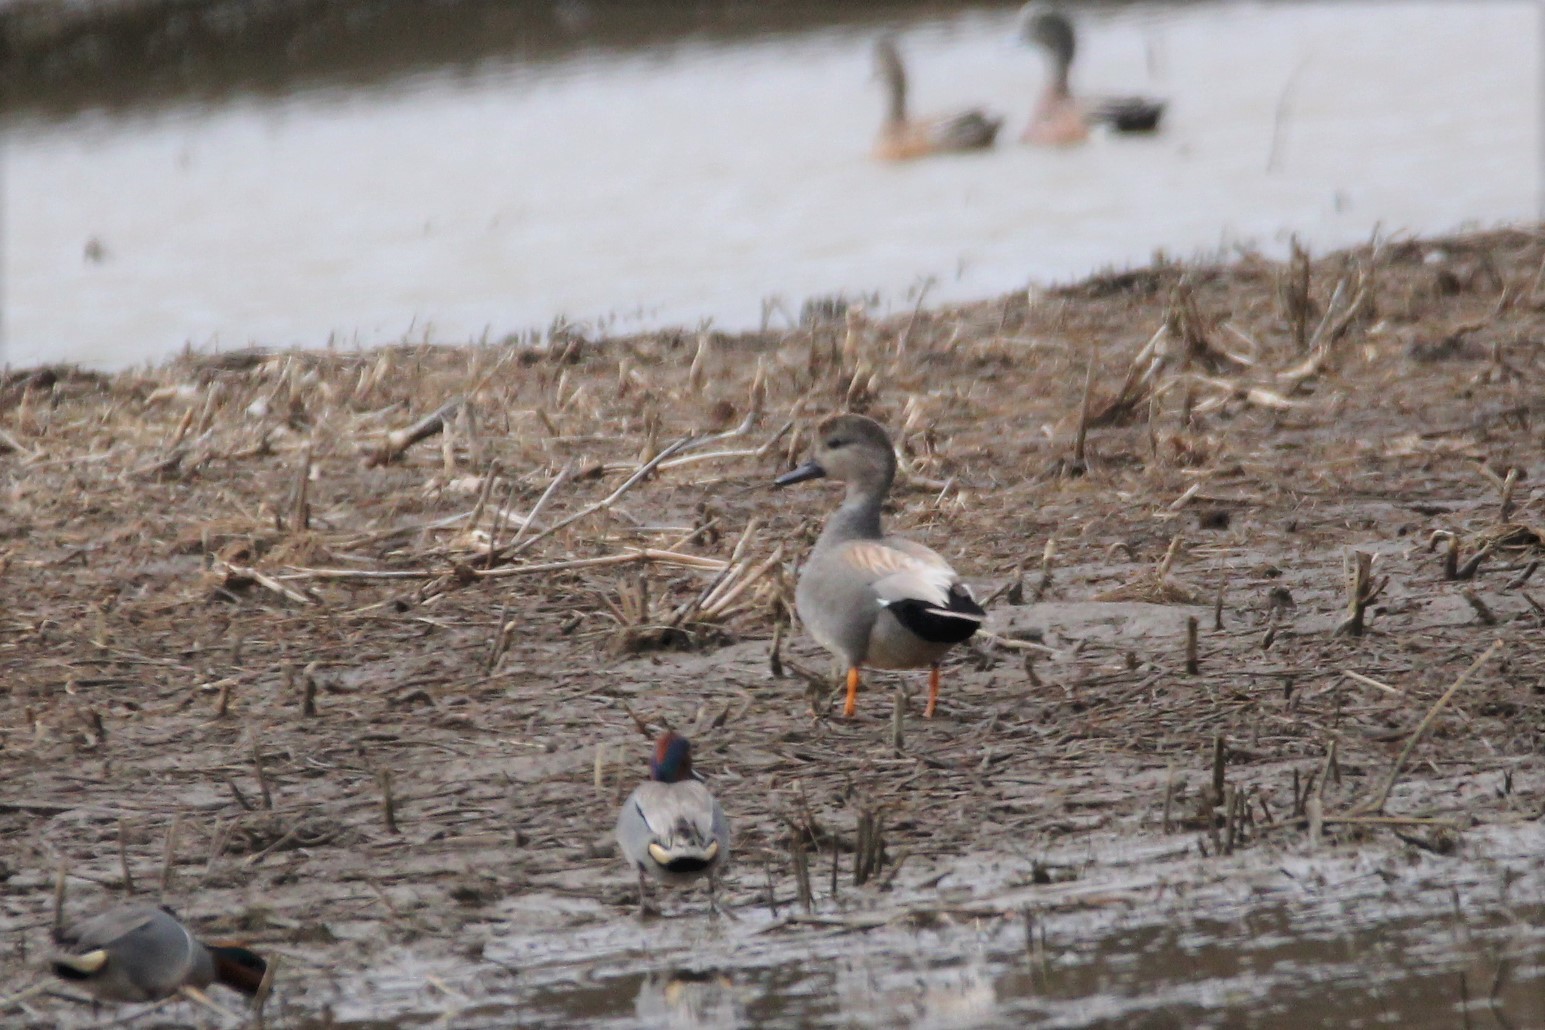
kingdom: Animalia
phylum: Chordata
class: Aves
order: Anseriformes
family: Anatidae
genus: Mareca
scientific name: Mareca strepera
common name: Gadwall
